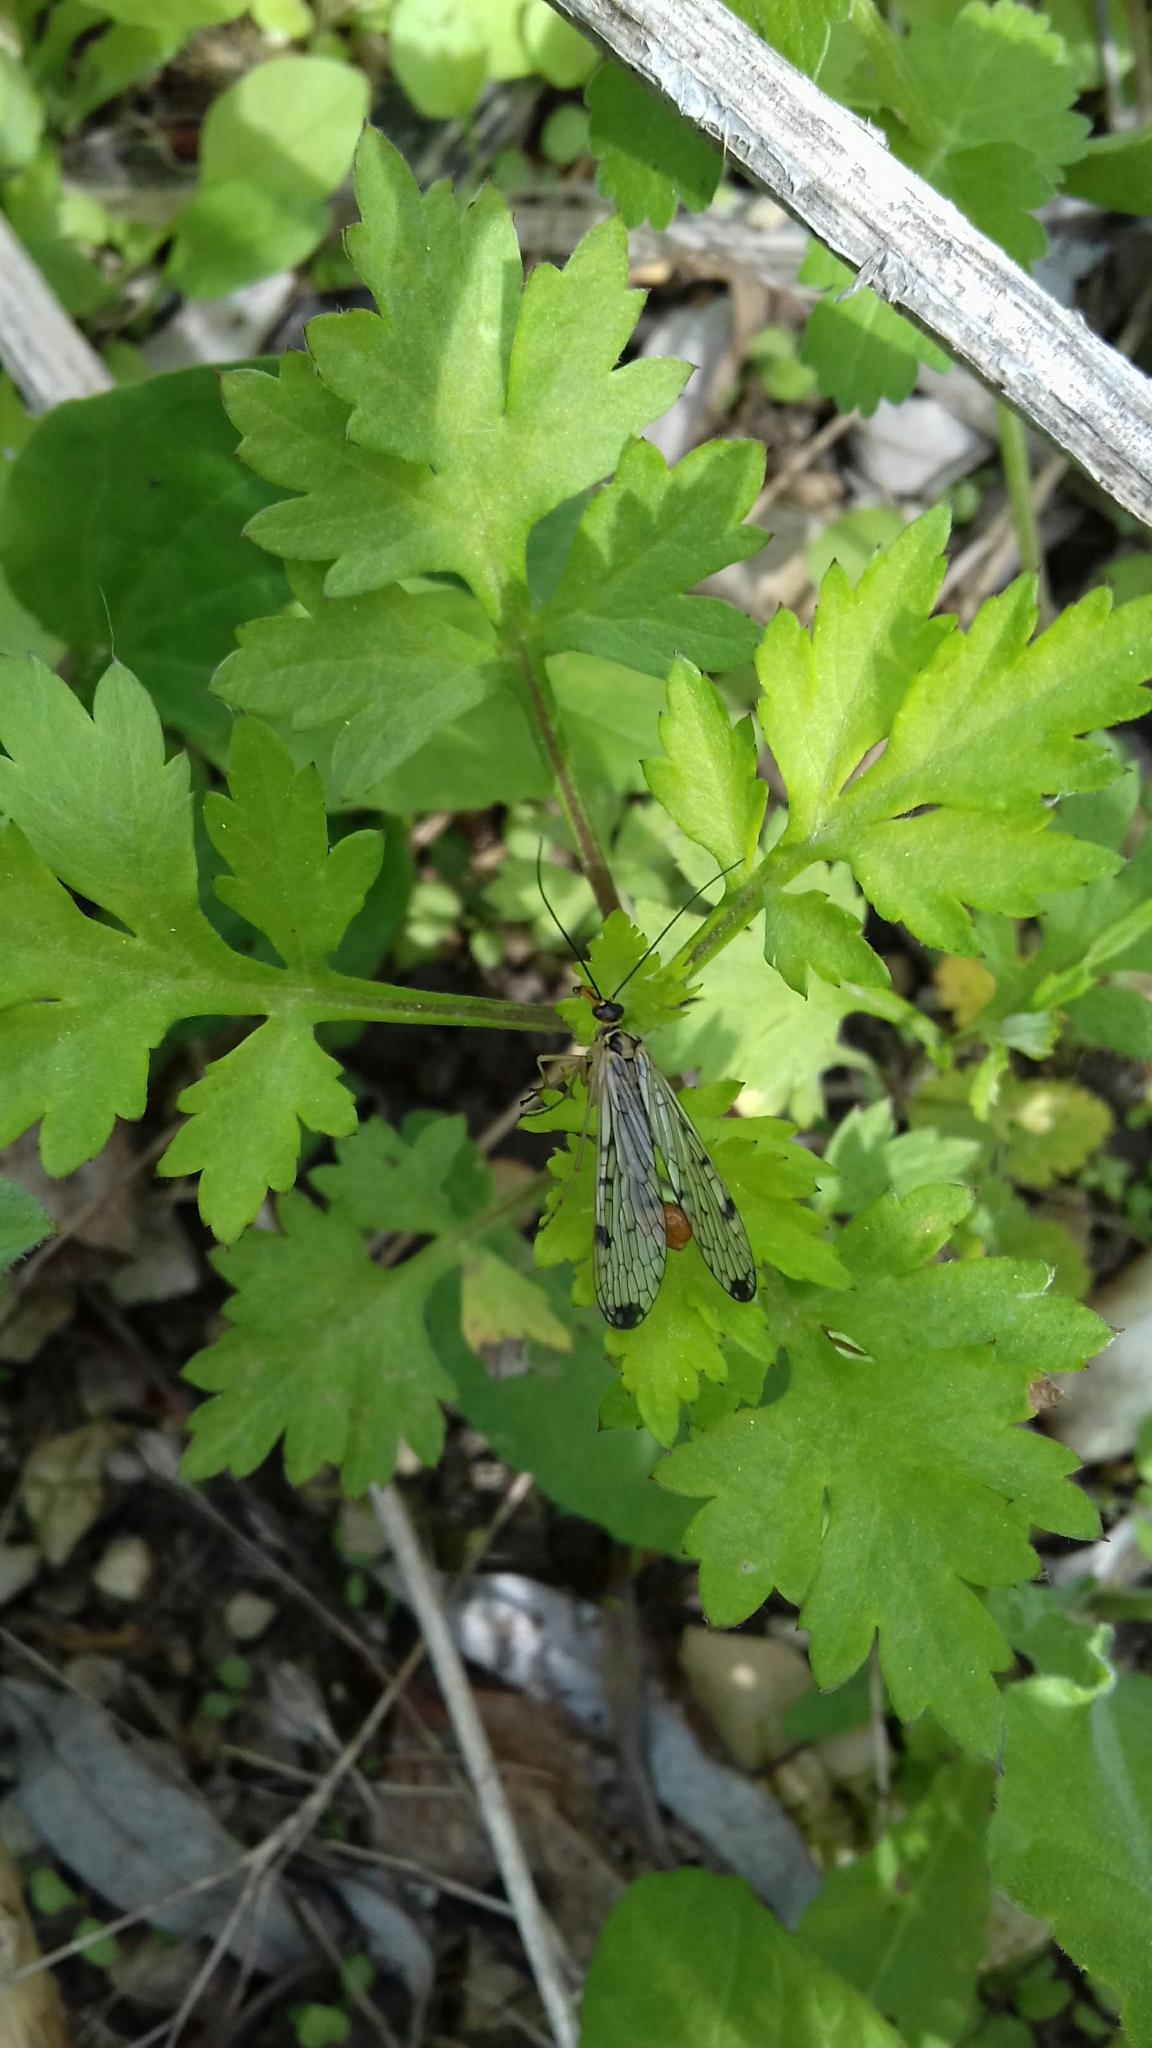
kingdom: Animalia
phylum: Arthropoda
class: Insecta
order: Mecoptera
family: Panorpidae
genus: Panorpa
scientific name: Panorpa germanica
